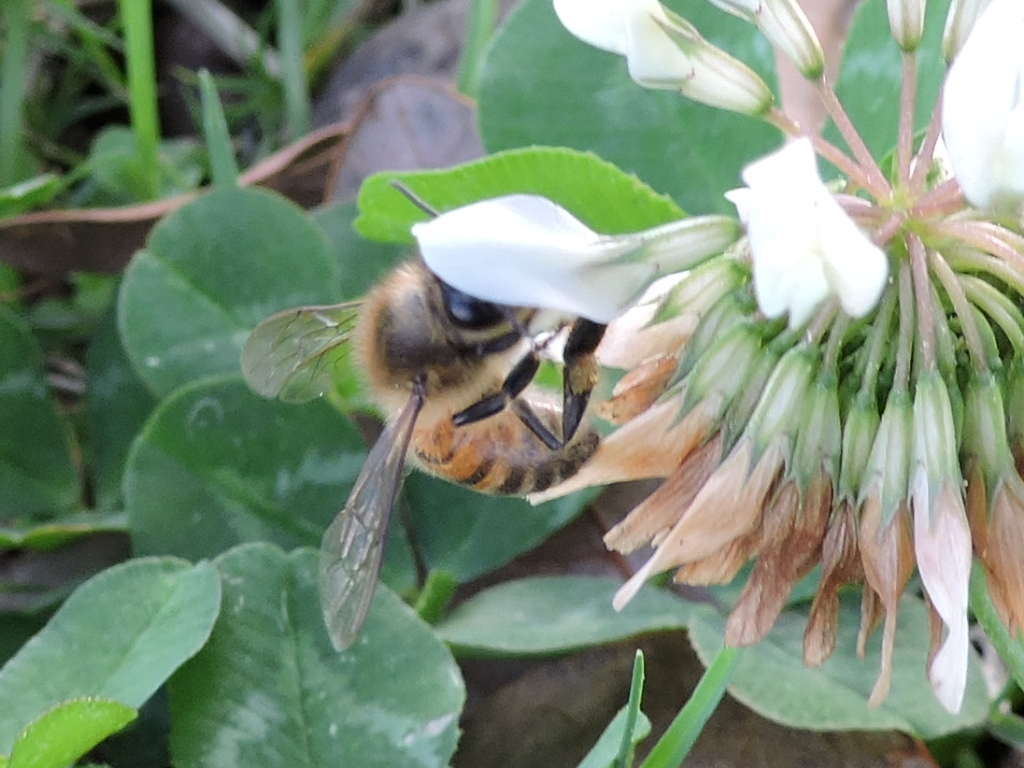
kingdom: Animalia
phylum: Arthropoda
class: Insecta
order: Hymenoptera
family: Apidae
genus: Apis
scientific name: Apis mellifera
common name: Honey bee
